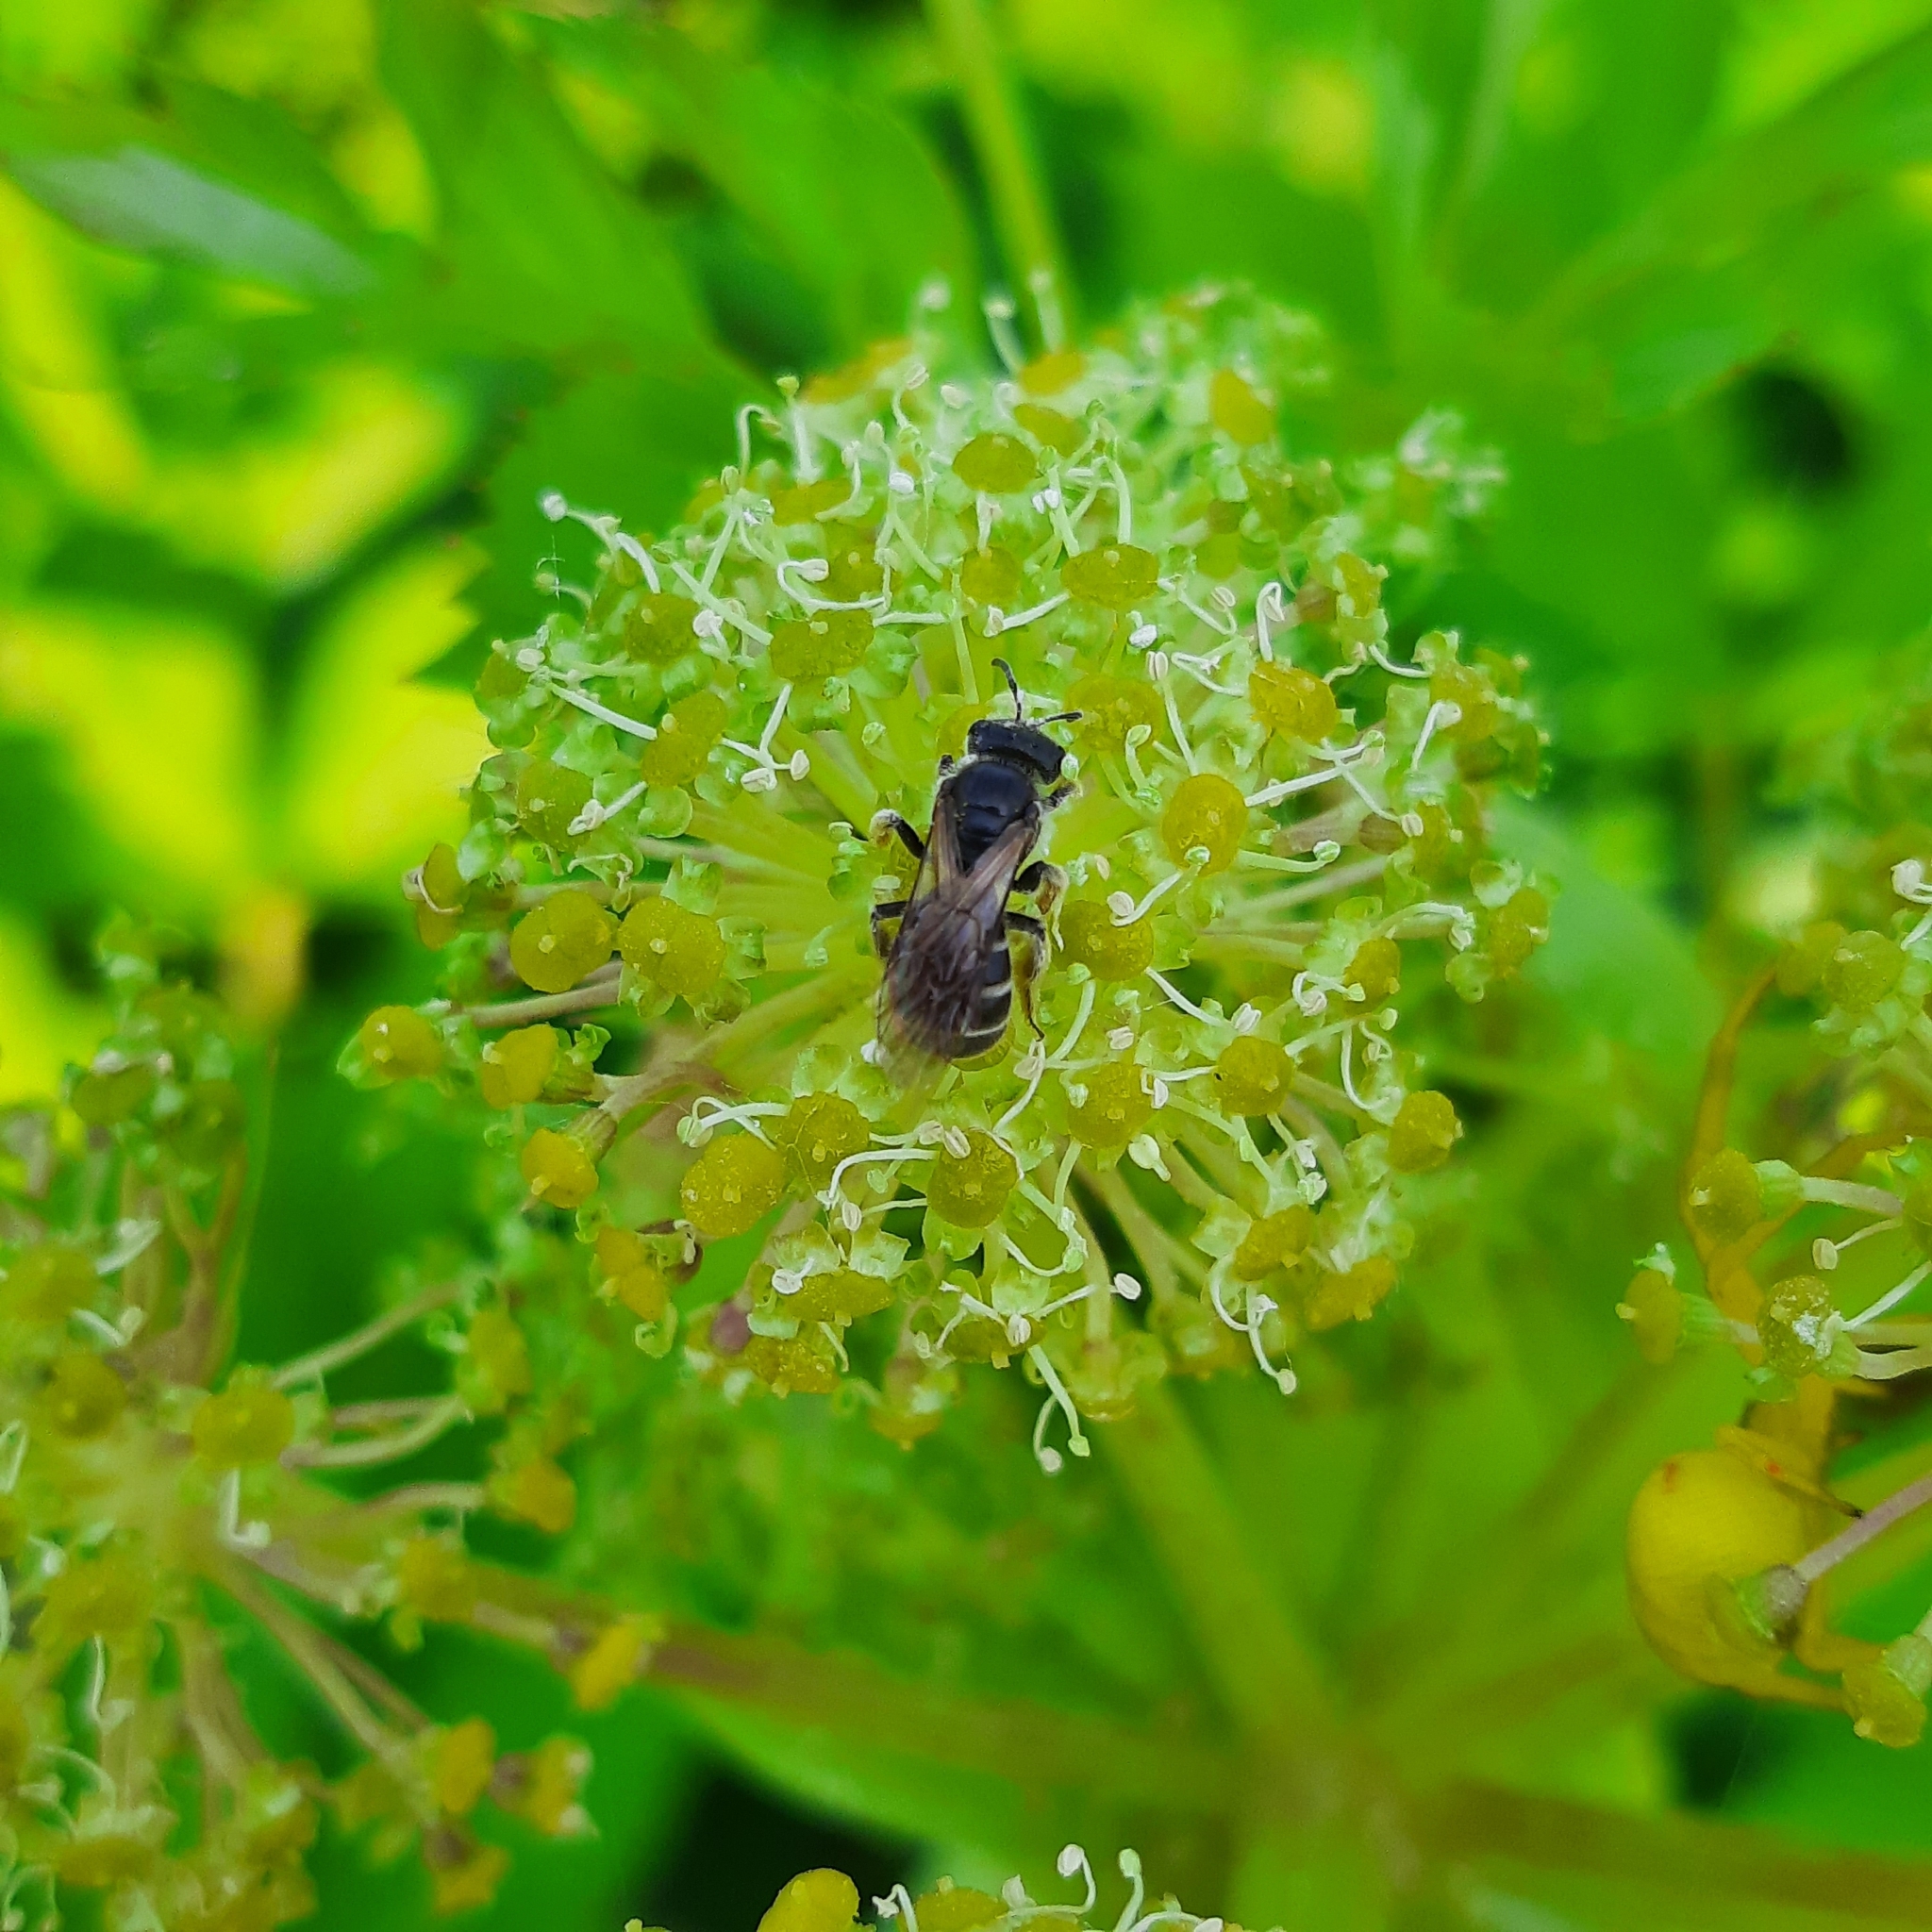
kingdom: Animalia
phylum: Arthropoda
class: Insecta
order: Hymenoptera
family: Halictidae
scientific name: Halictidae
